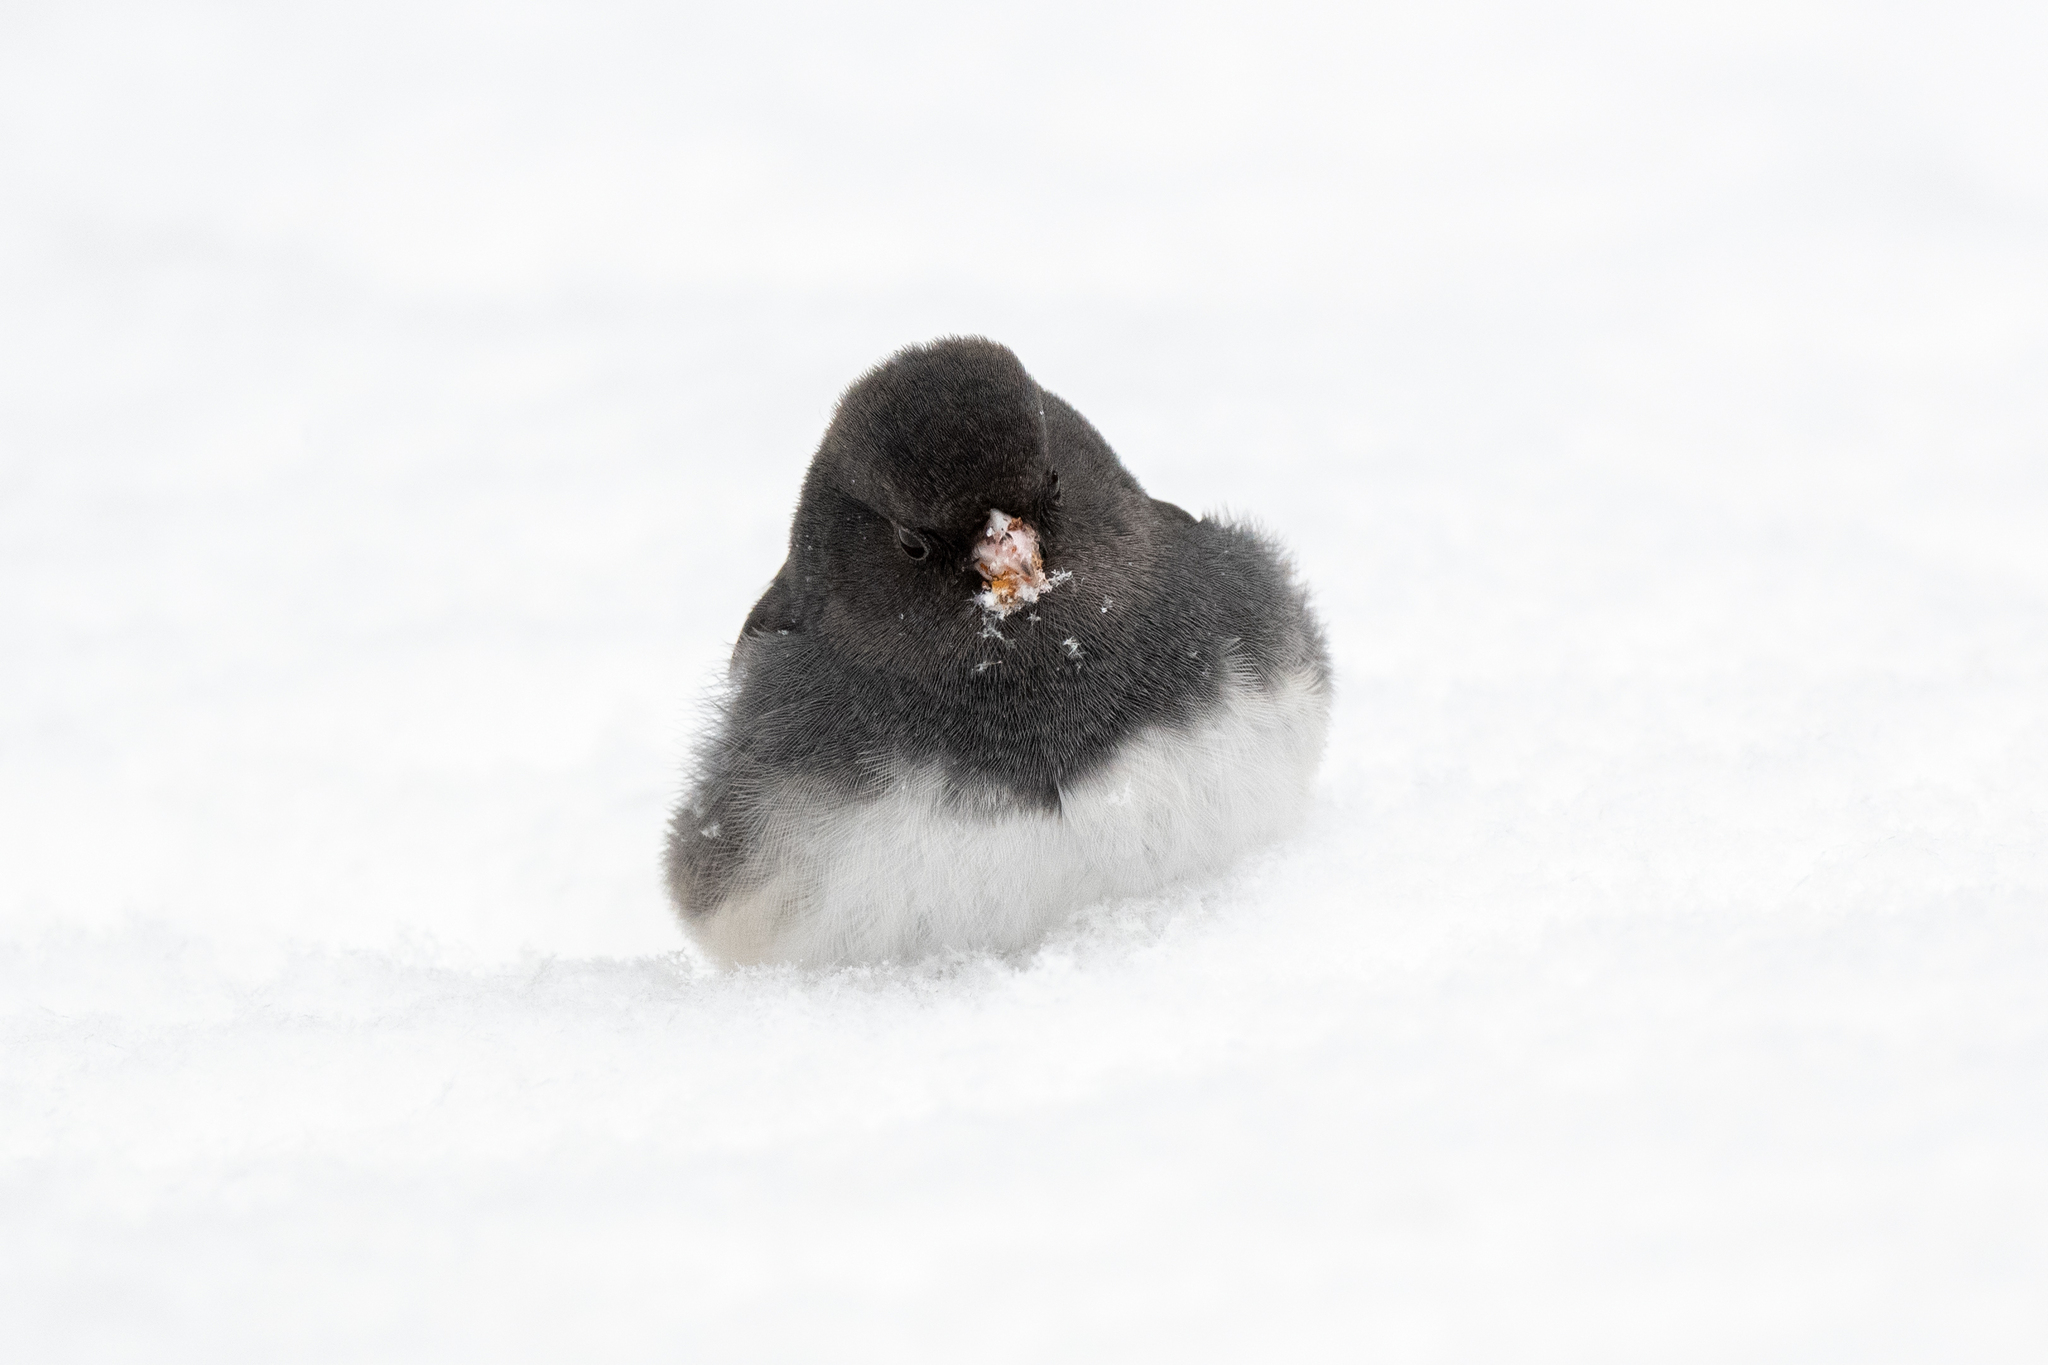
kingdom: Animalia
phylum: Chordata
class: Aves
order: Passeriformes
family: Passerellidae
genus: Junco
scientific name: Junco hyemalis
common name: Dark-eyed junco
